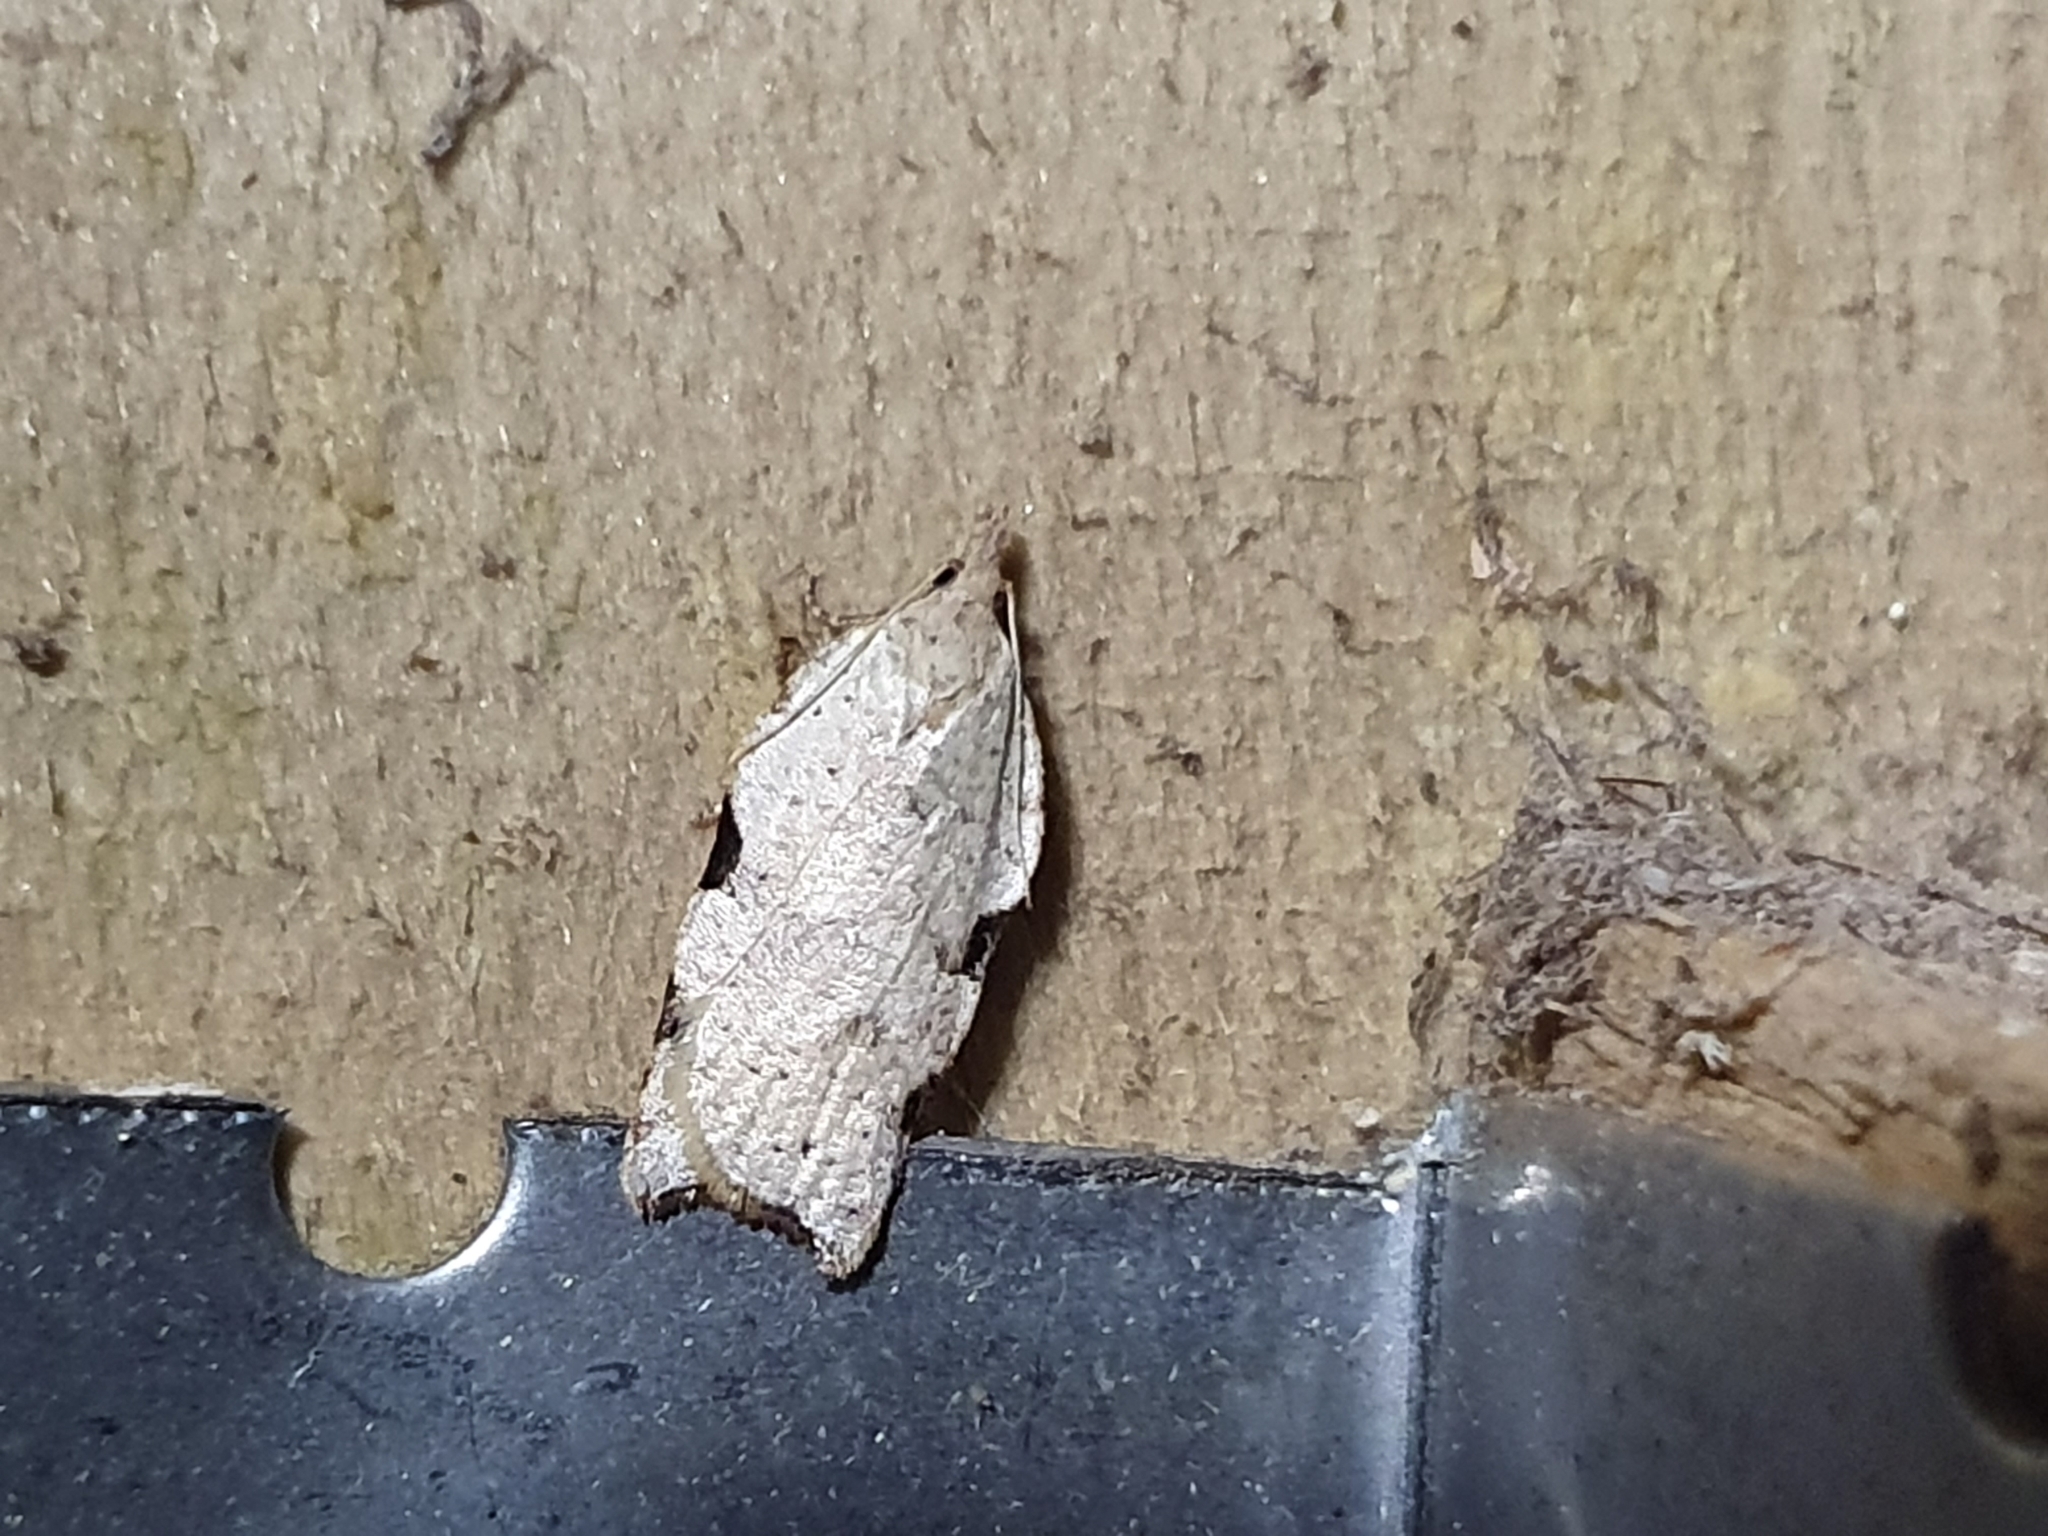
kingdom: Animalia
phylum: Arthropoda
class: Insecta
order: Lepidoptera
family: Tortricidae
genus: Apoctena
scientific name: Apoctena flavescens
